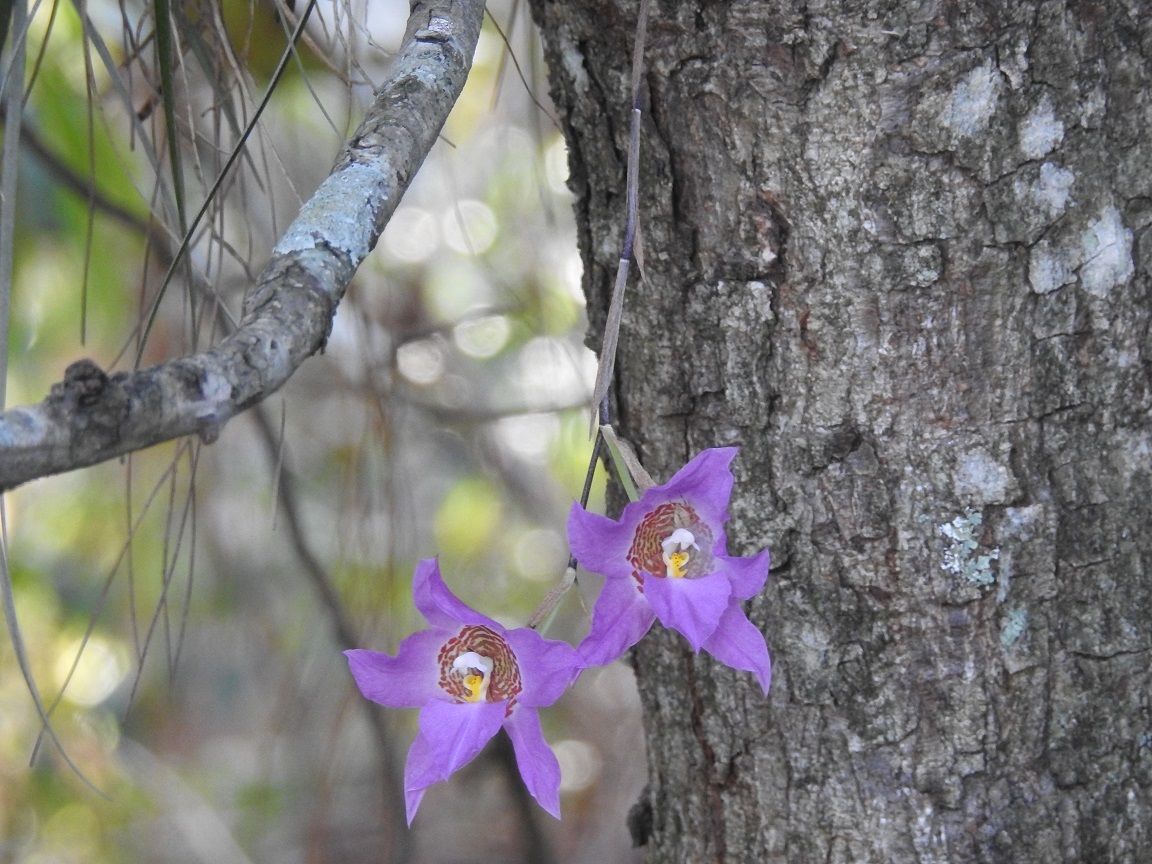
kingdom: Plantae
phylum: Tracheophyta
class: Liliopsida
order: Asparagales
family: Orchidaceae
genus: Rhynchostele
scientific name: Rhynchostele cervantesii
